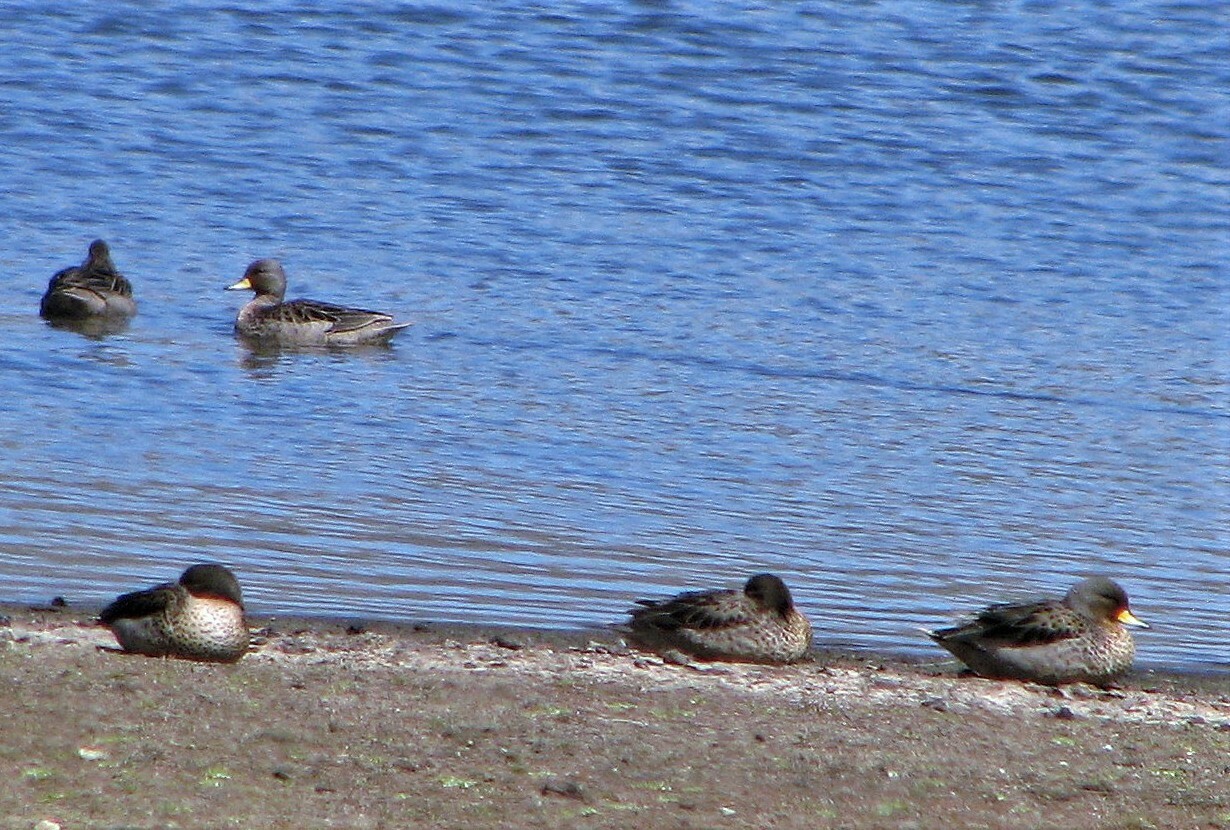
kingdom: Animalia
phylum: Chordata
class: Aves
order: Anseriformes
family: Anatidae
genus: Anas
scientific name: Anas flavirostris
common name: Yellow-billed teal
